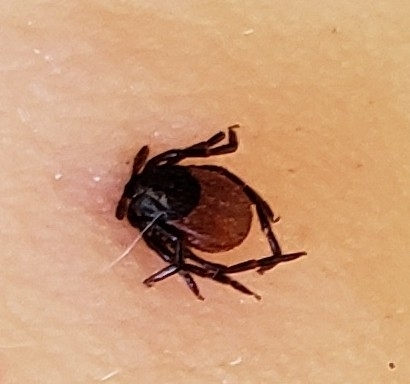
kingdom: Animalia
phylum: Arthropoda
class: Arachnida
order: Ixodida
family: Ixodidae
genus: Ixodes
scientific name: Ixodes pacificus
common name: California black-legged tick
